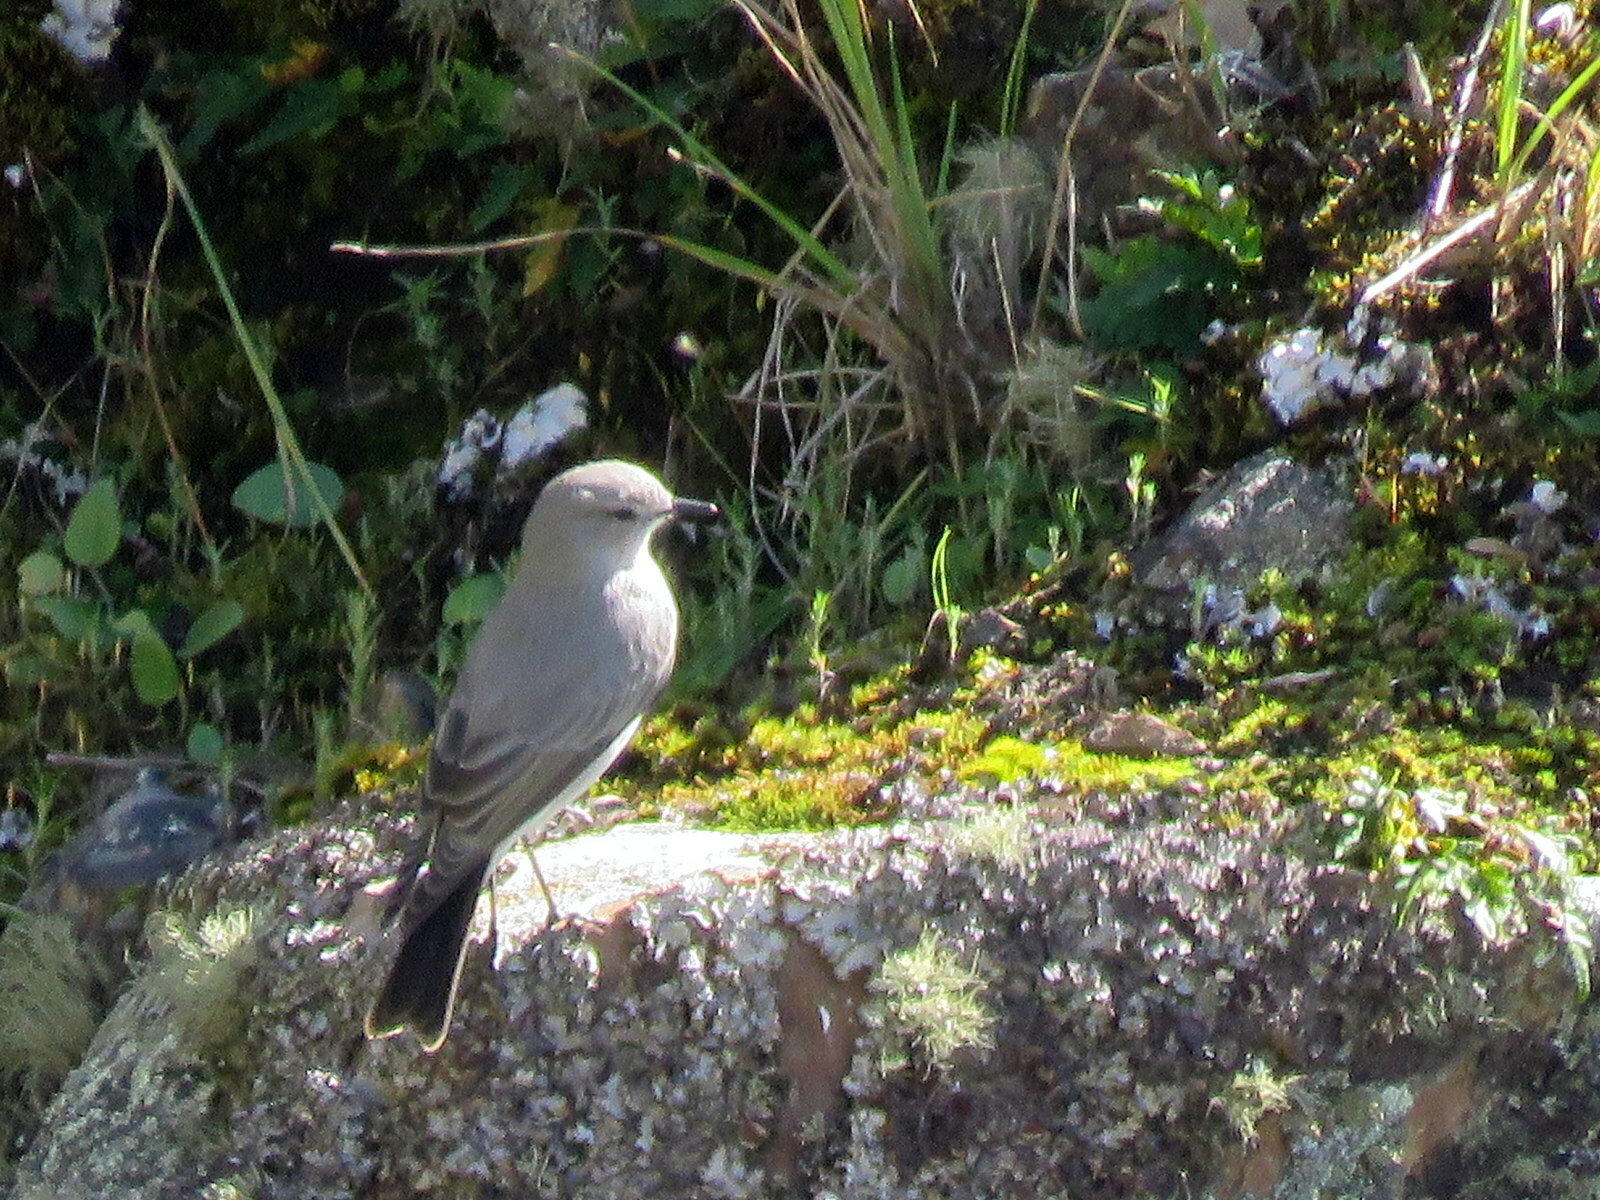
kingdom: Animalia
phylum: Chordata
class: Aves
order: Passeriformes
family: Tyrannidae
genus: Muscisaxicola
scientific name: Muscisaxicola cinereus
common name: Cinereous ground tyrant
